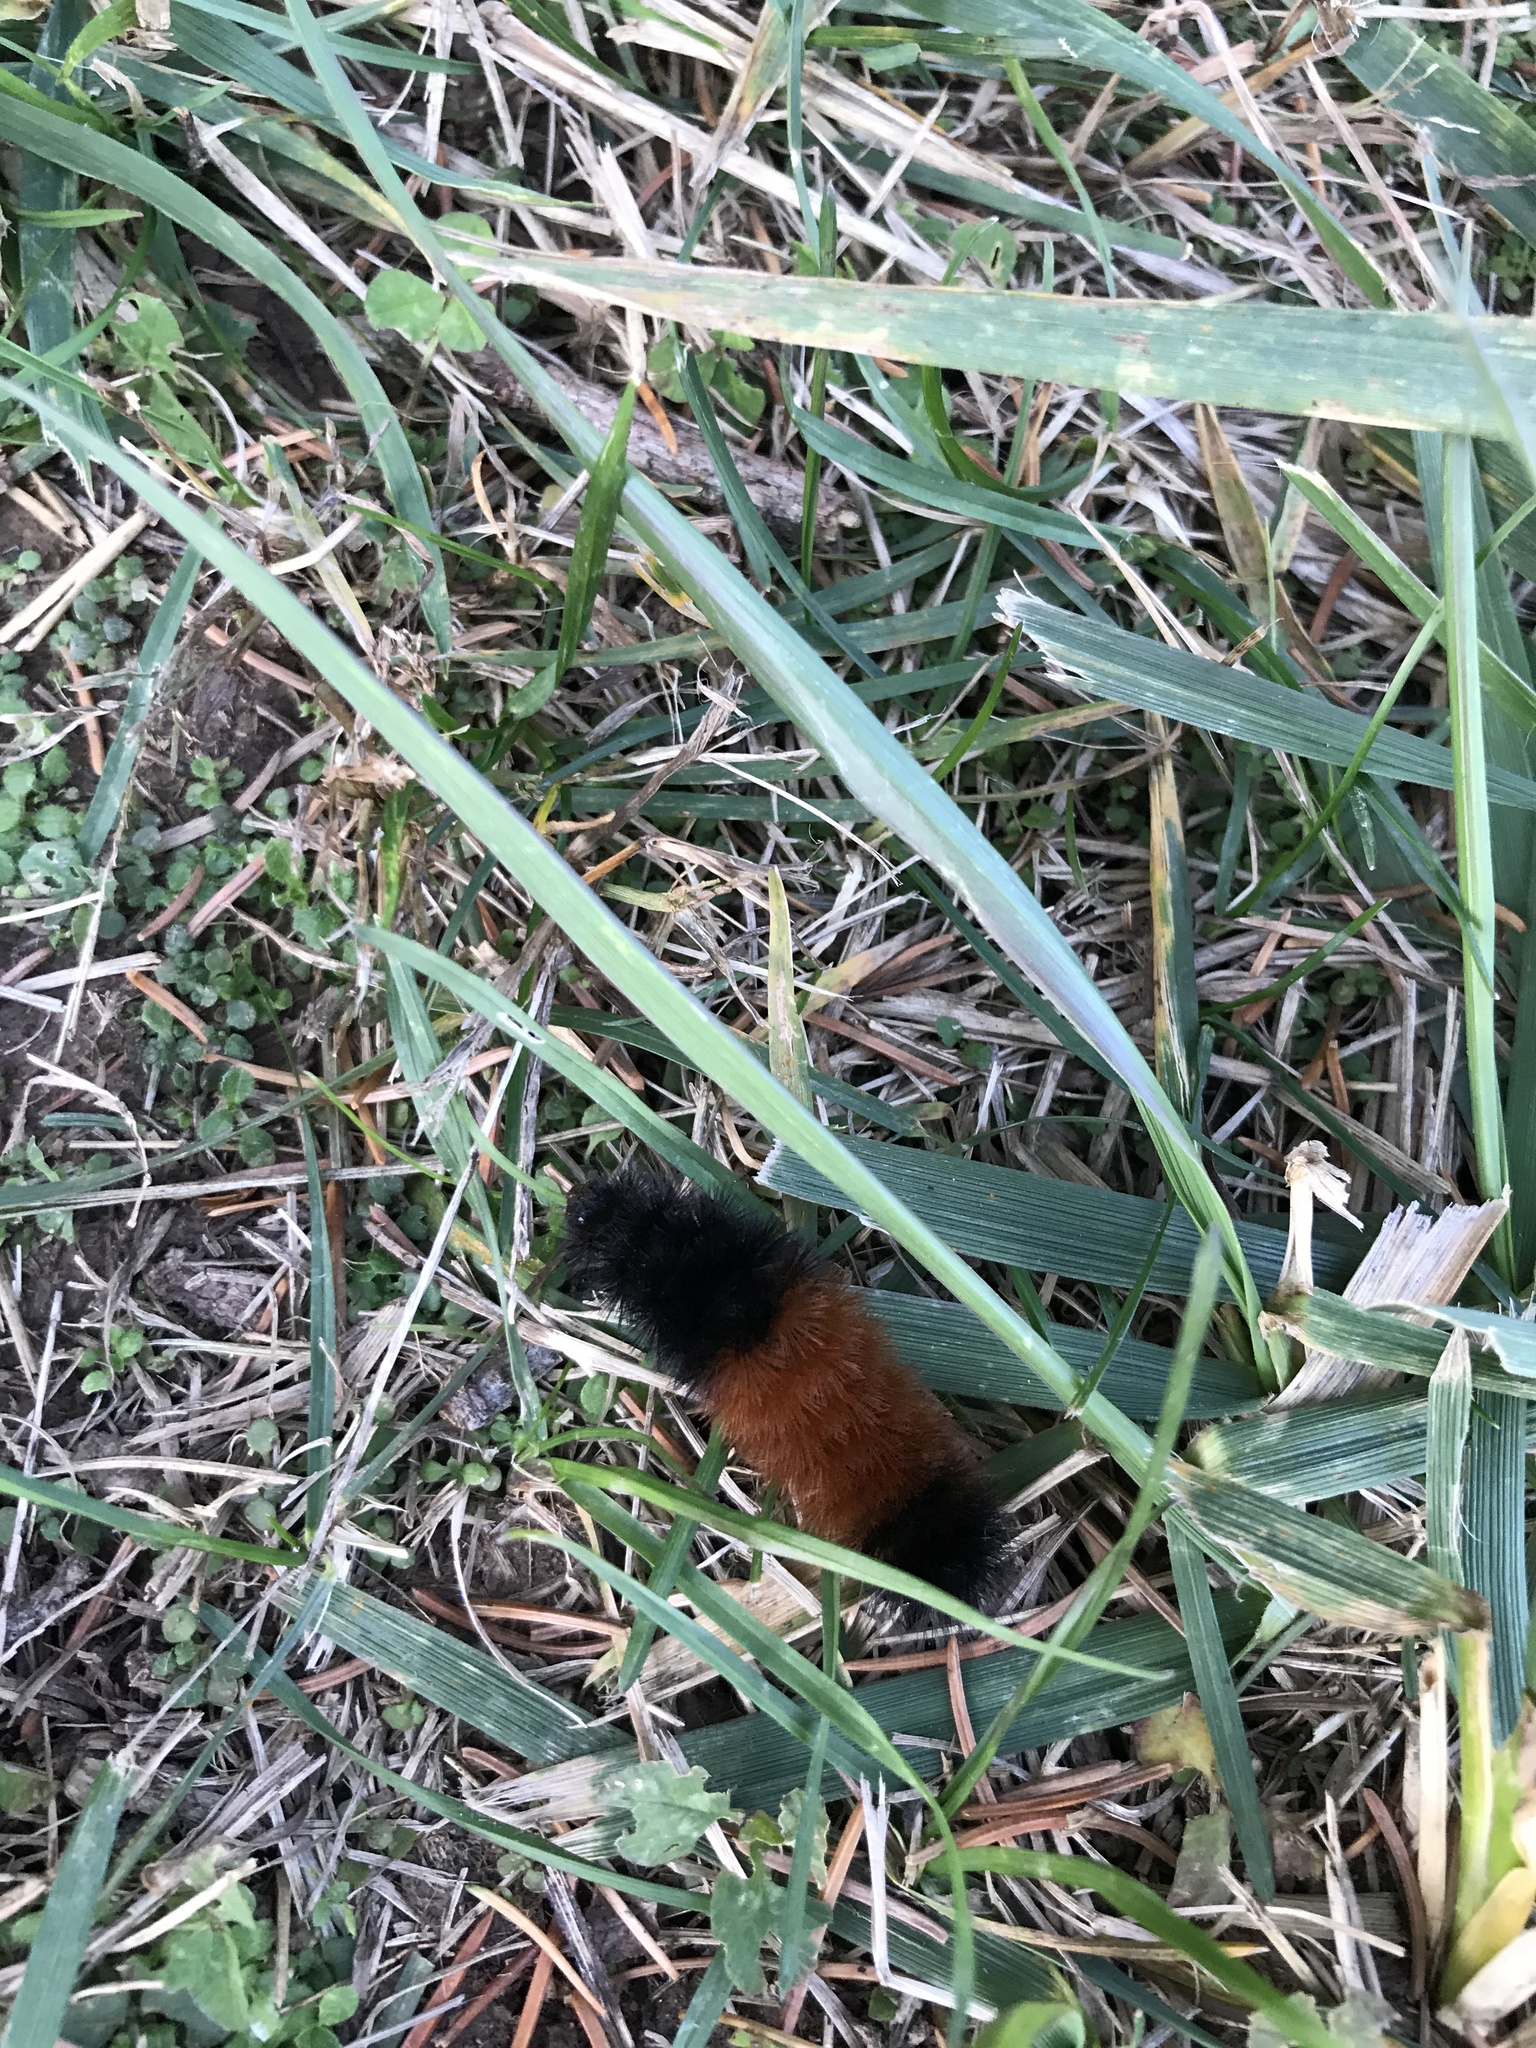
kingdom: Animalia
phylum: Arthropoda
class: Insecta
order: Lepidoptera
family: Erebidae
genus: Pyrrharctia
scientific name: Pyrrharctia isabella
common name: Isabella tiger moth
